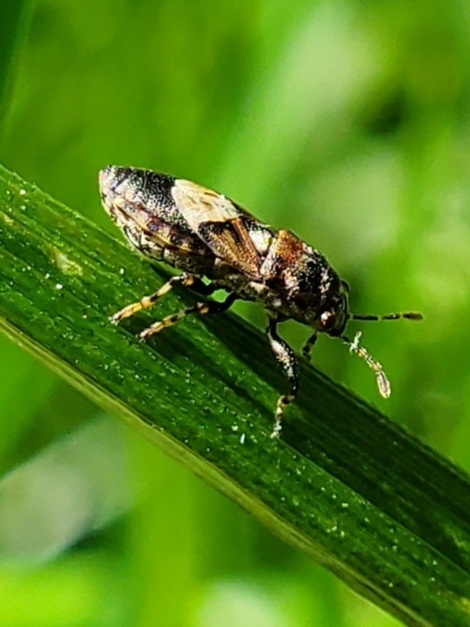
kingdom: Animalia
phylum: Arthropoda
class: Insecta
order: Hemiptera
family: Pachygronthidae
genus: Phlegyas
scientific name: Phlegyas abbreviatus
